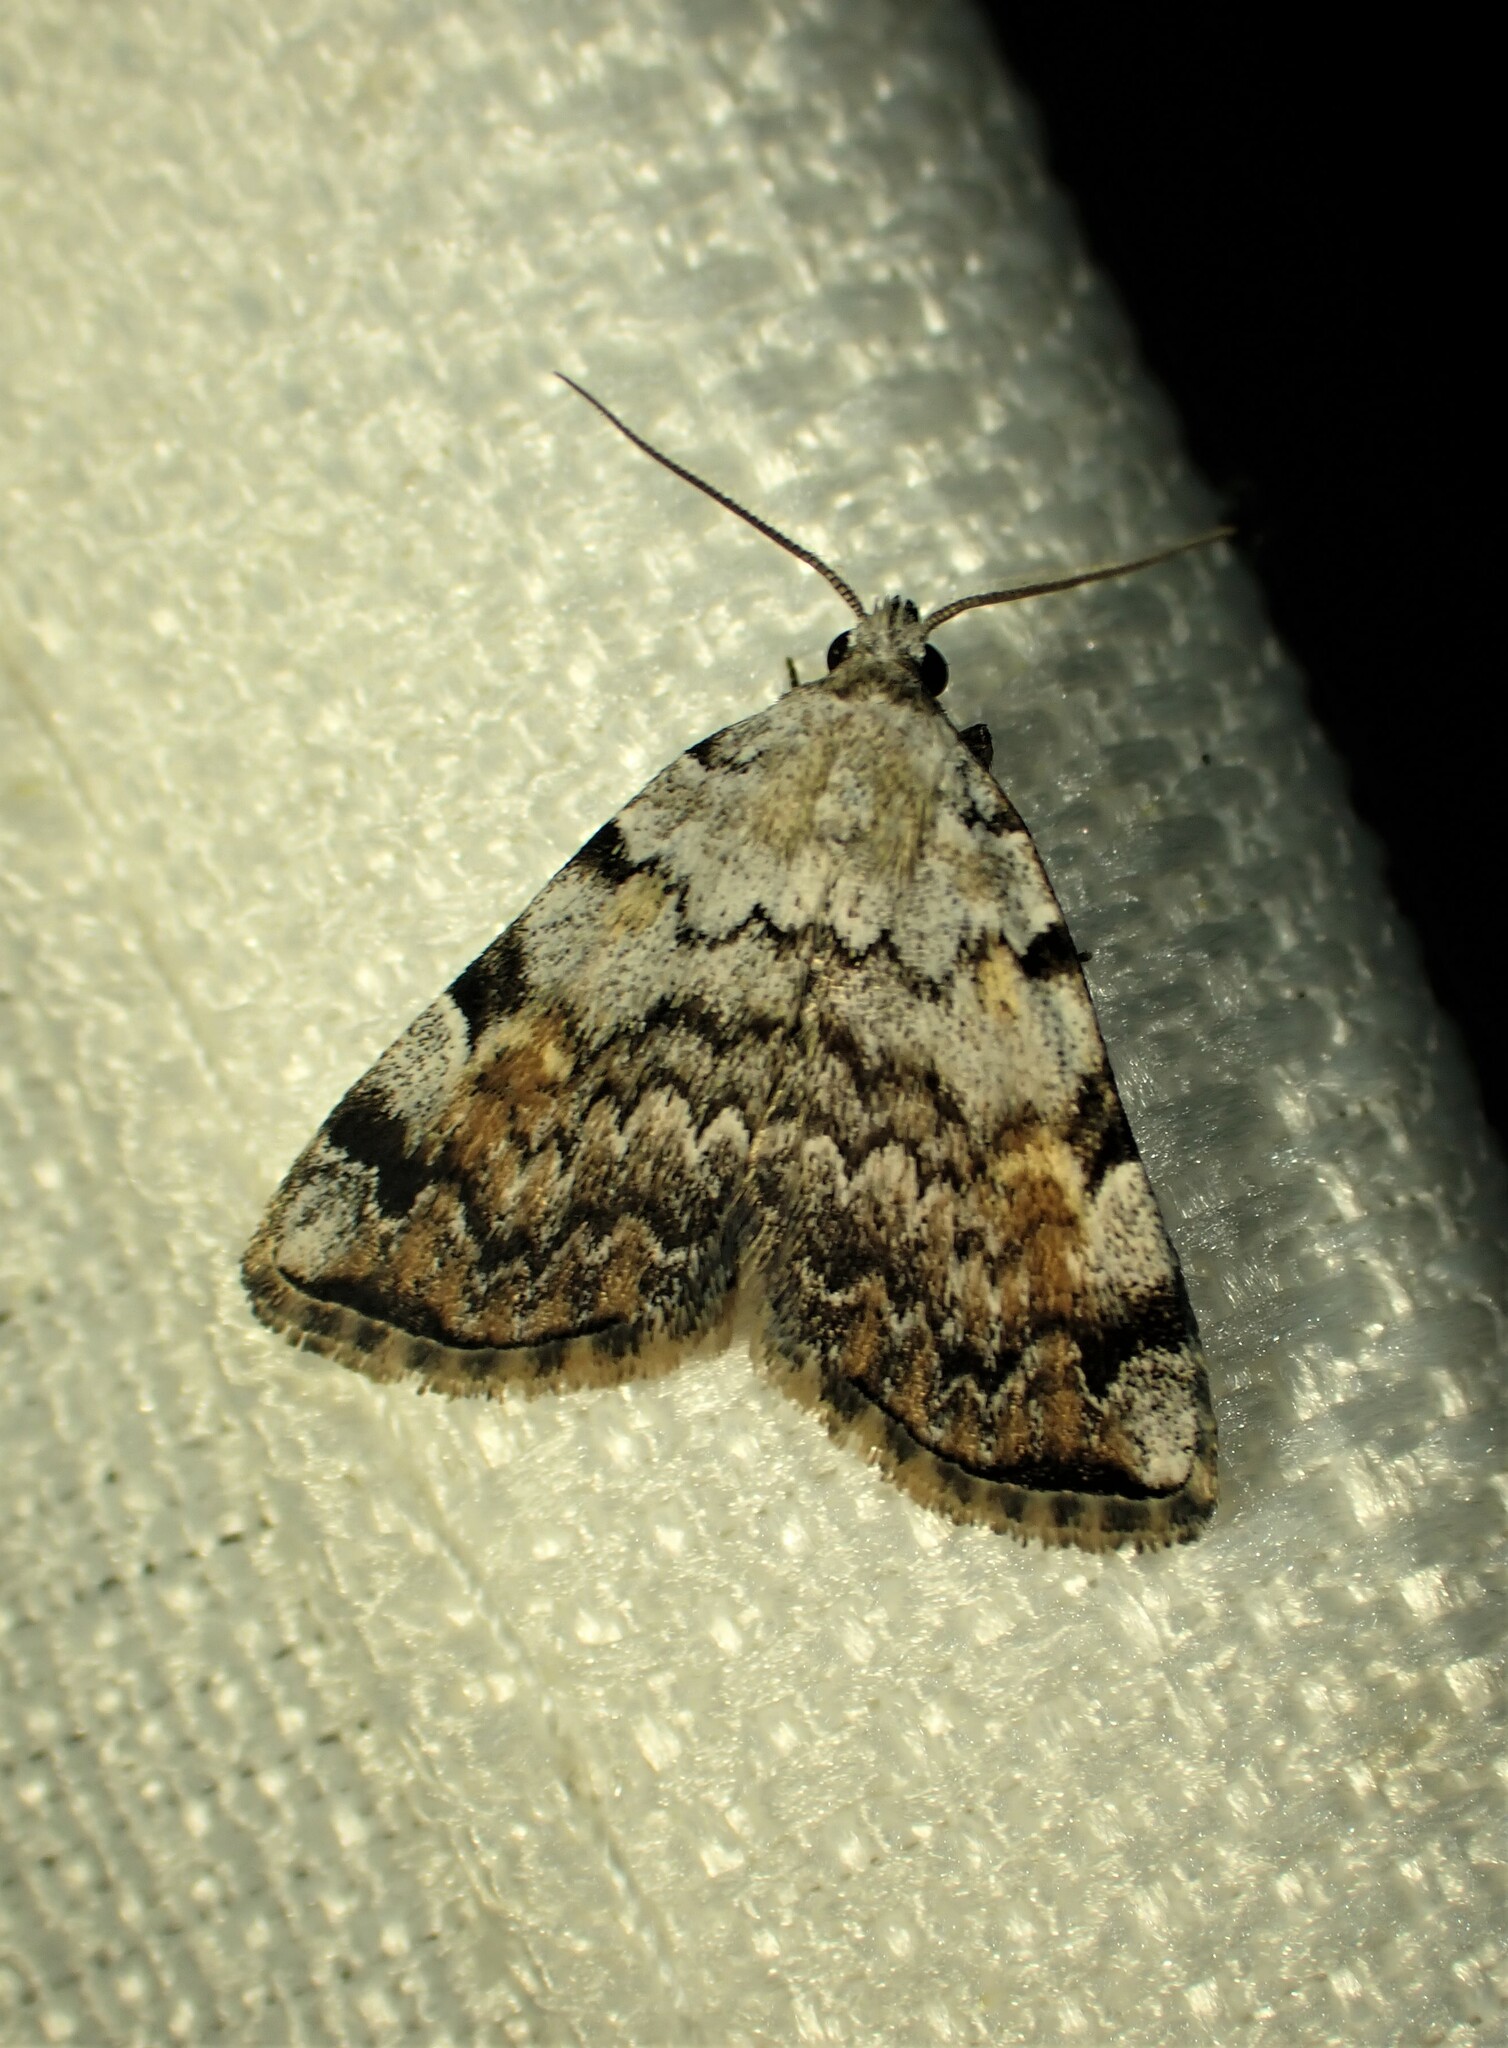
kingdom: Animalia
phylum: Arthropoda
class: Insecta
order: Lepidoptera
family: Erebidae
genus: Idia
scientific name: Idia americalis
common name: American idia moth
